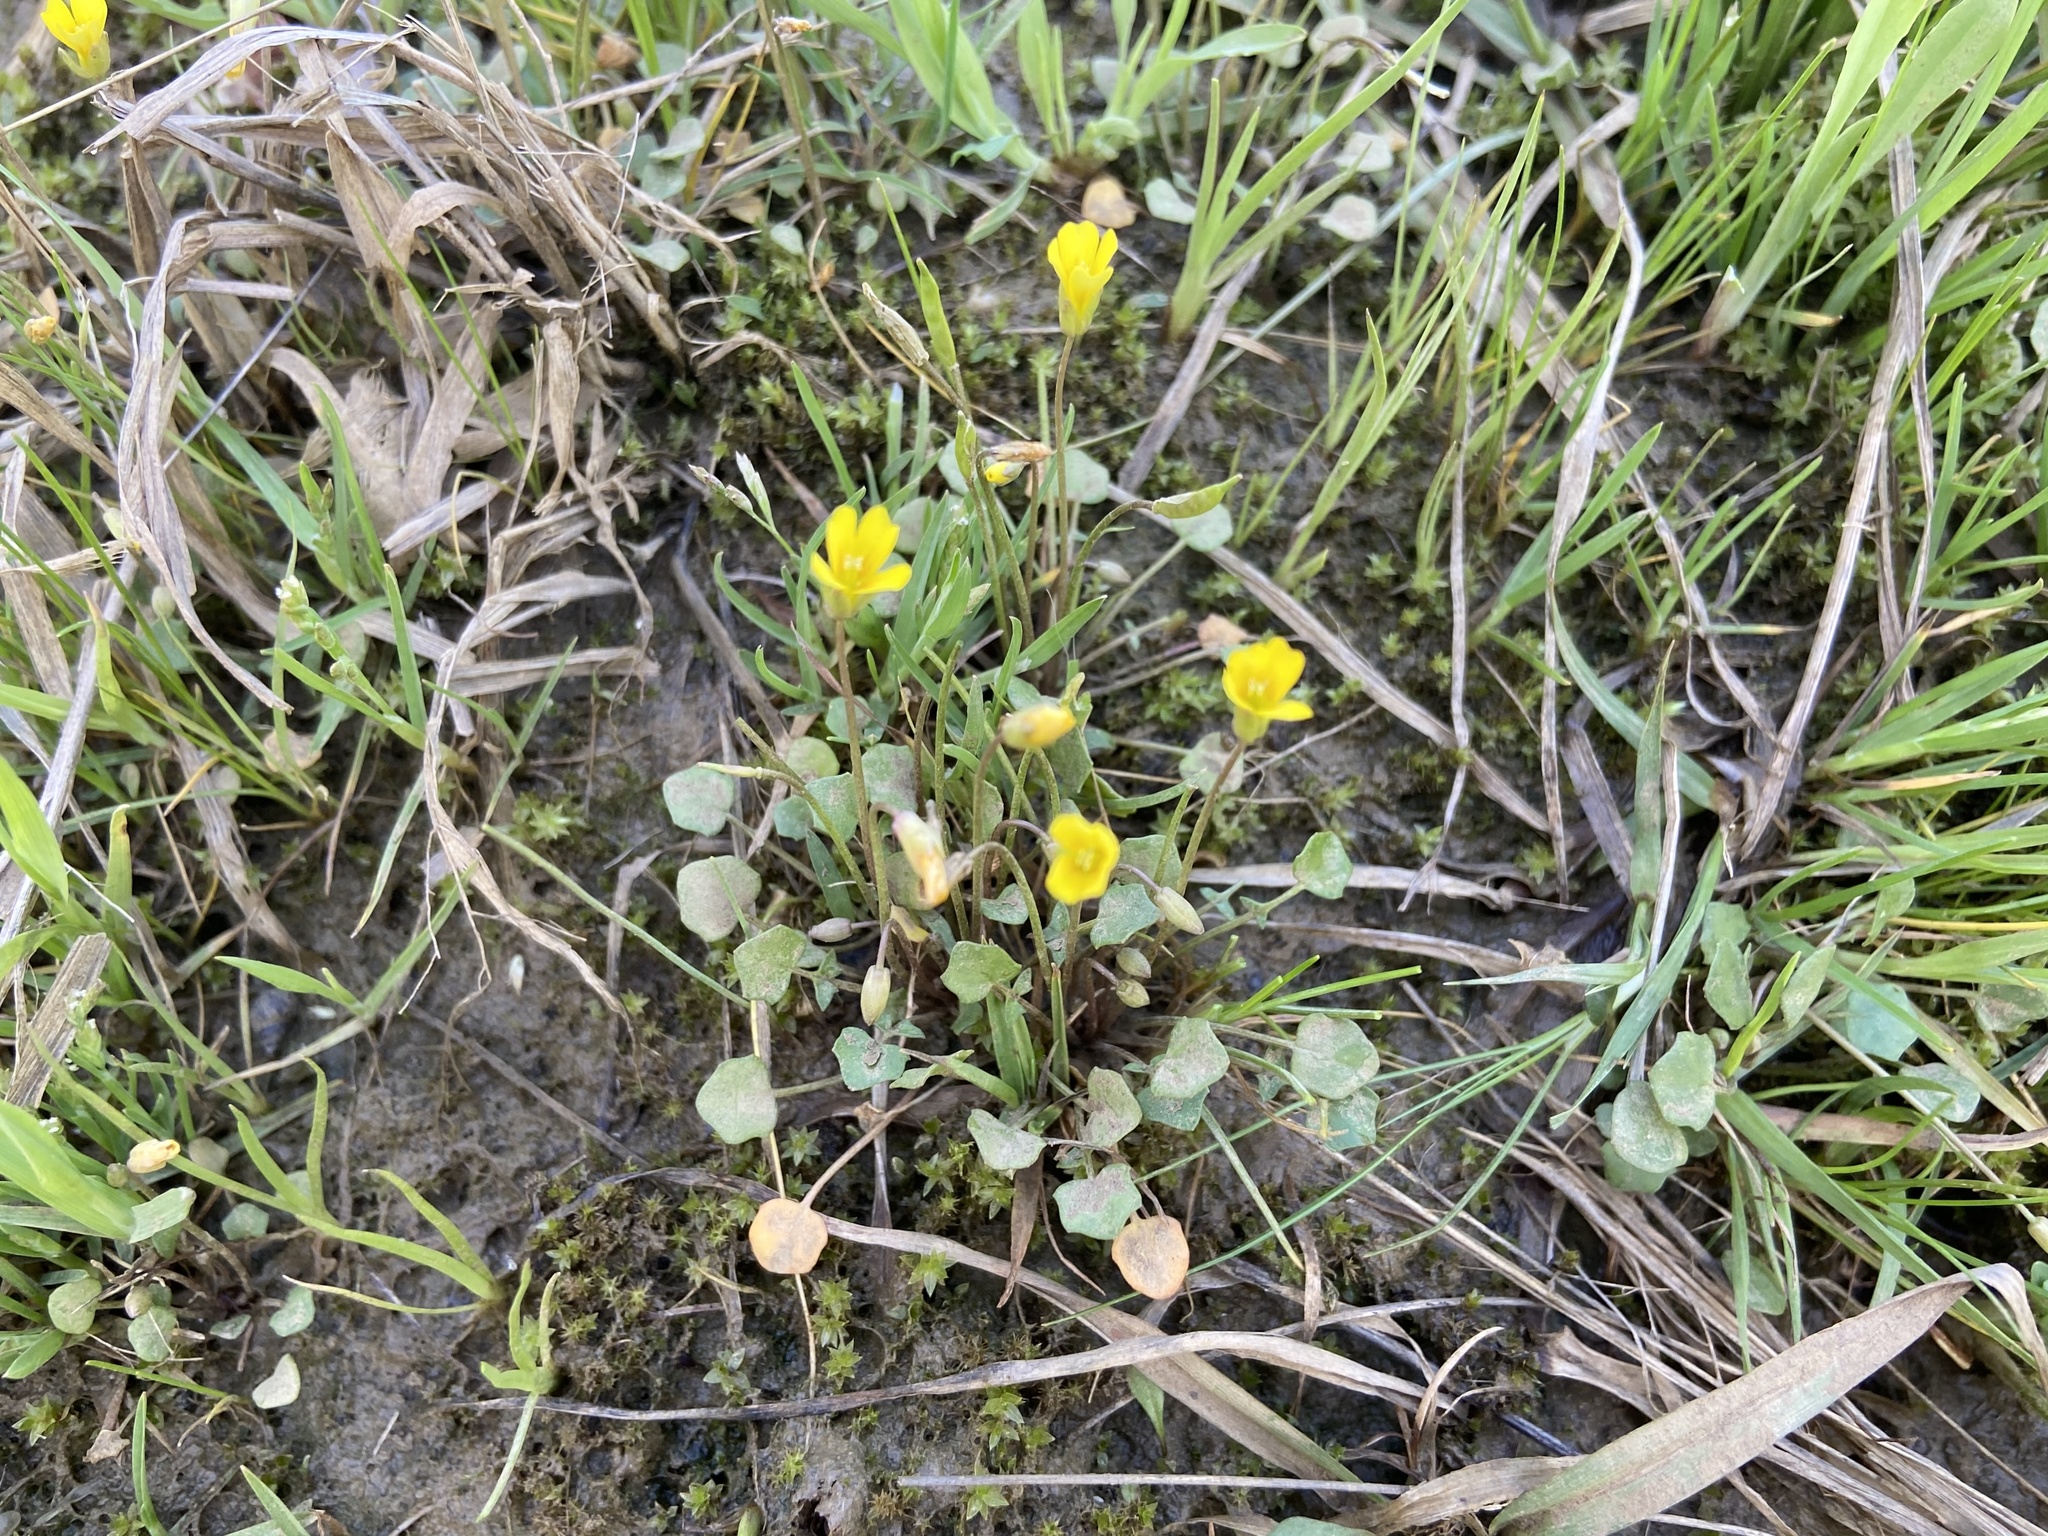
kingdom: Plantae
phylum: Tracheophyta
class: Magnoliopsida
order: Brassicales
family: Brassicaceae
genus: Leavenworthia
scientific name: Leavenworthia exigua
